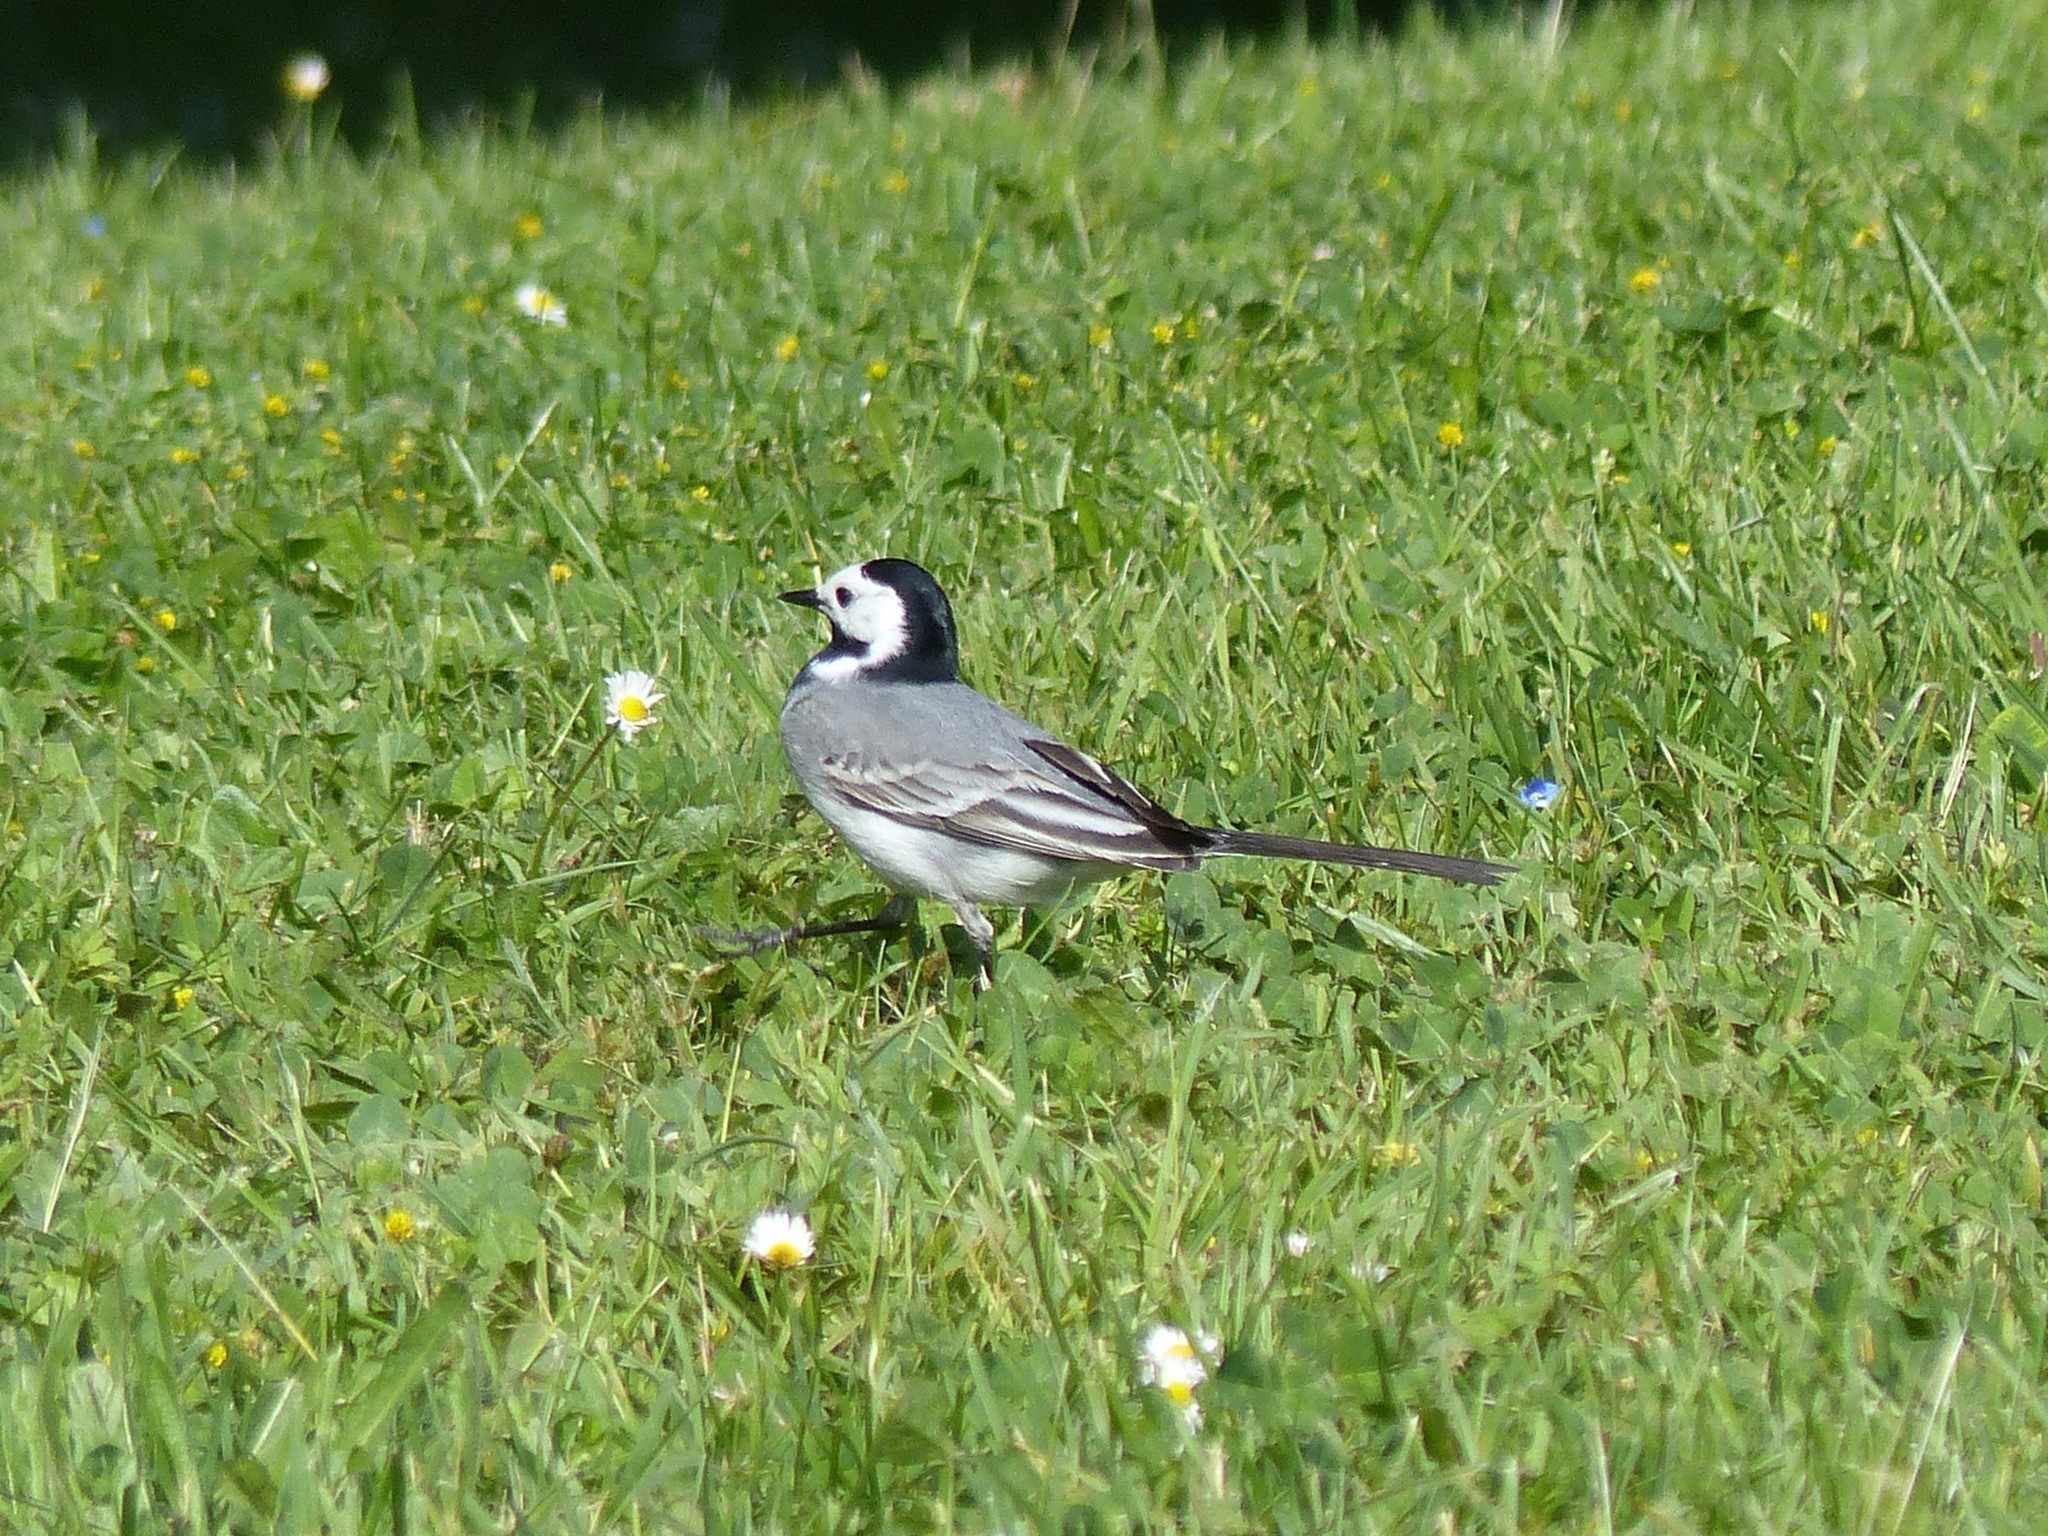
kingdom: Animalia
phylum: Chordata
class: Aves
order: Passeriformes
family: Motacillidae
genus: Motacilla
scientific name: Motacilla alba
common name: White wagtail
